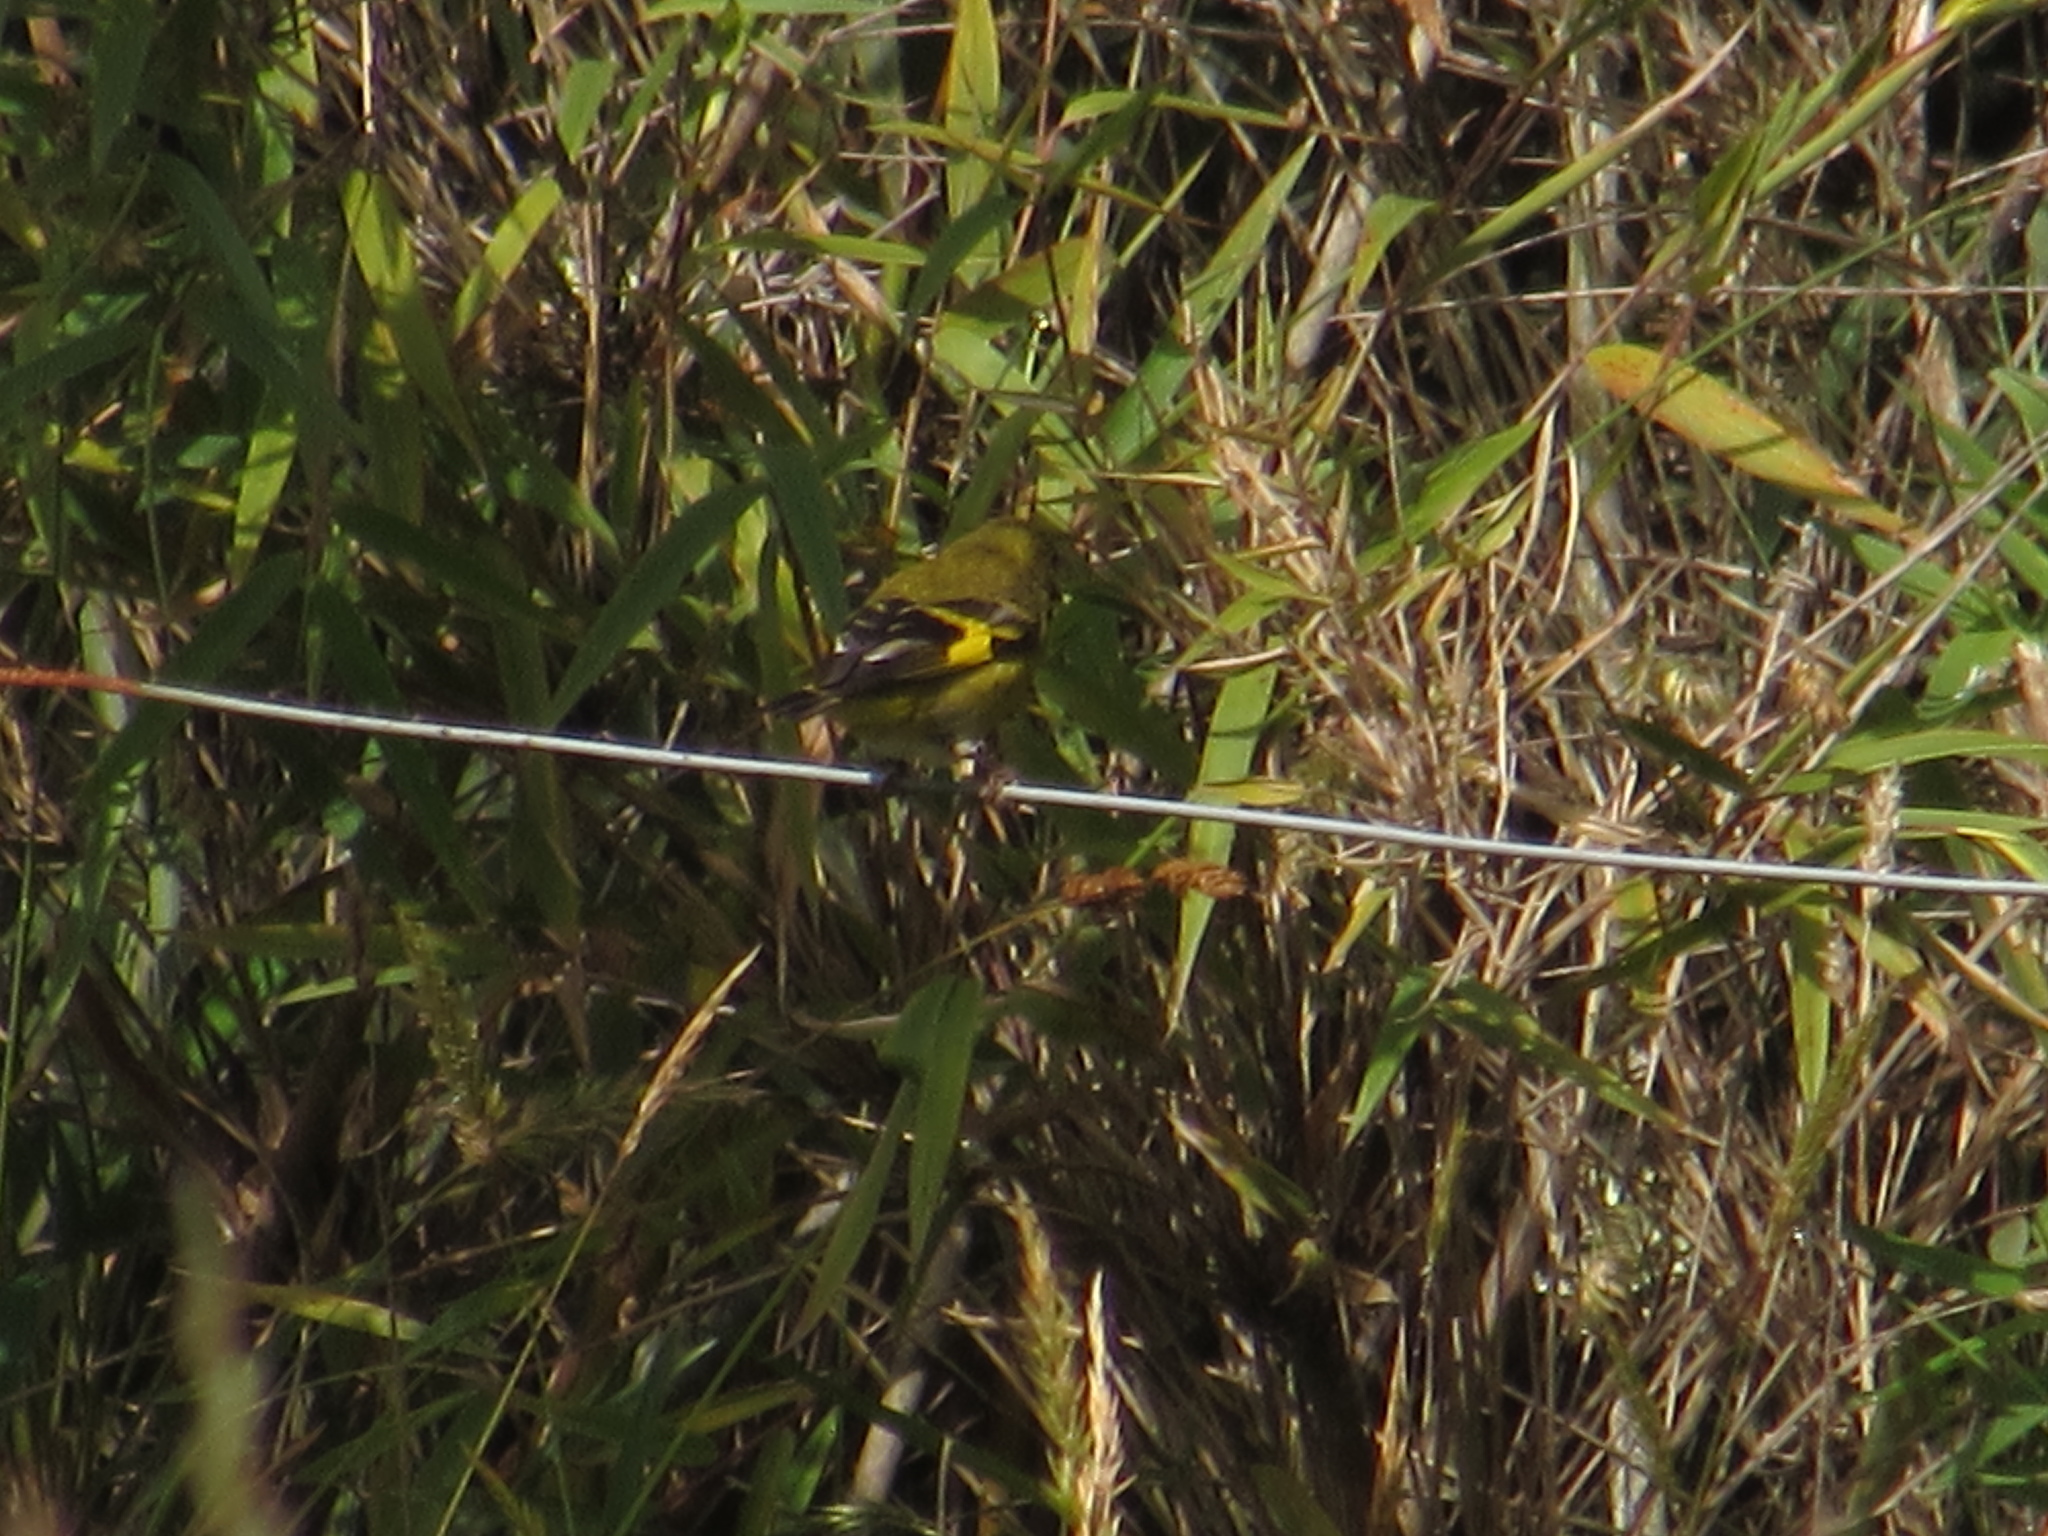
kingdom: Animalia
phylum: Chordata
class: Aves
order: Passeriformes
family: Fringillidae
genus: Spinus
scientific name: Spinus spinescens
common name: Andean siskin
